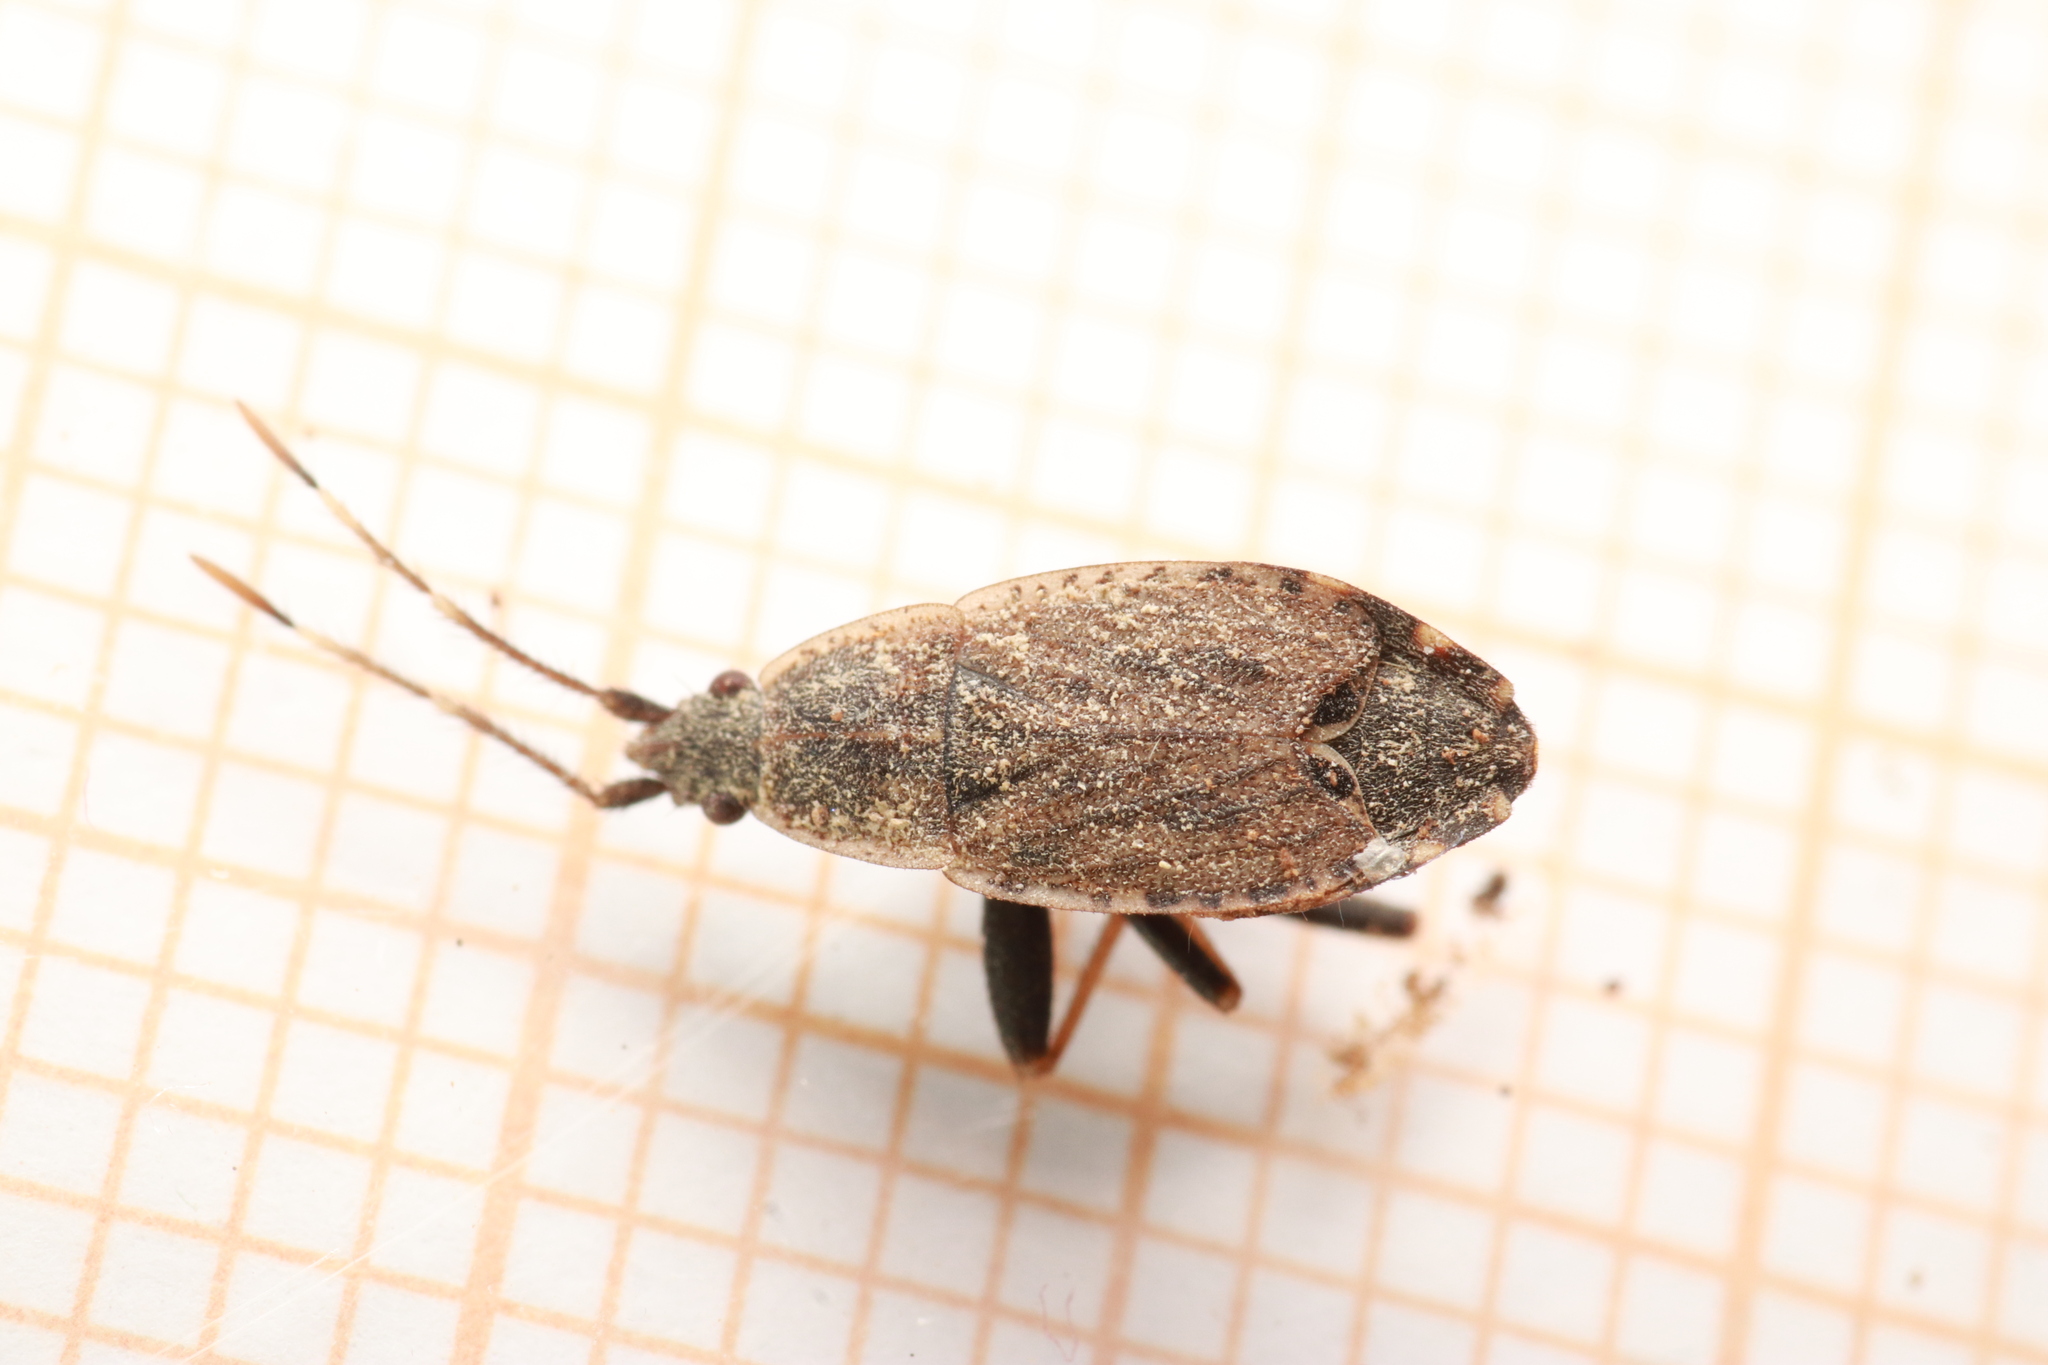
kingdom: Animalia
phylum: Arthropoda
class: Insecta
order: Hemiptera
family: Rhyparochromidae
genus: Ischnopeza
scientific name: Ischnopeza hirticornis
